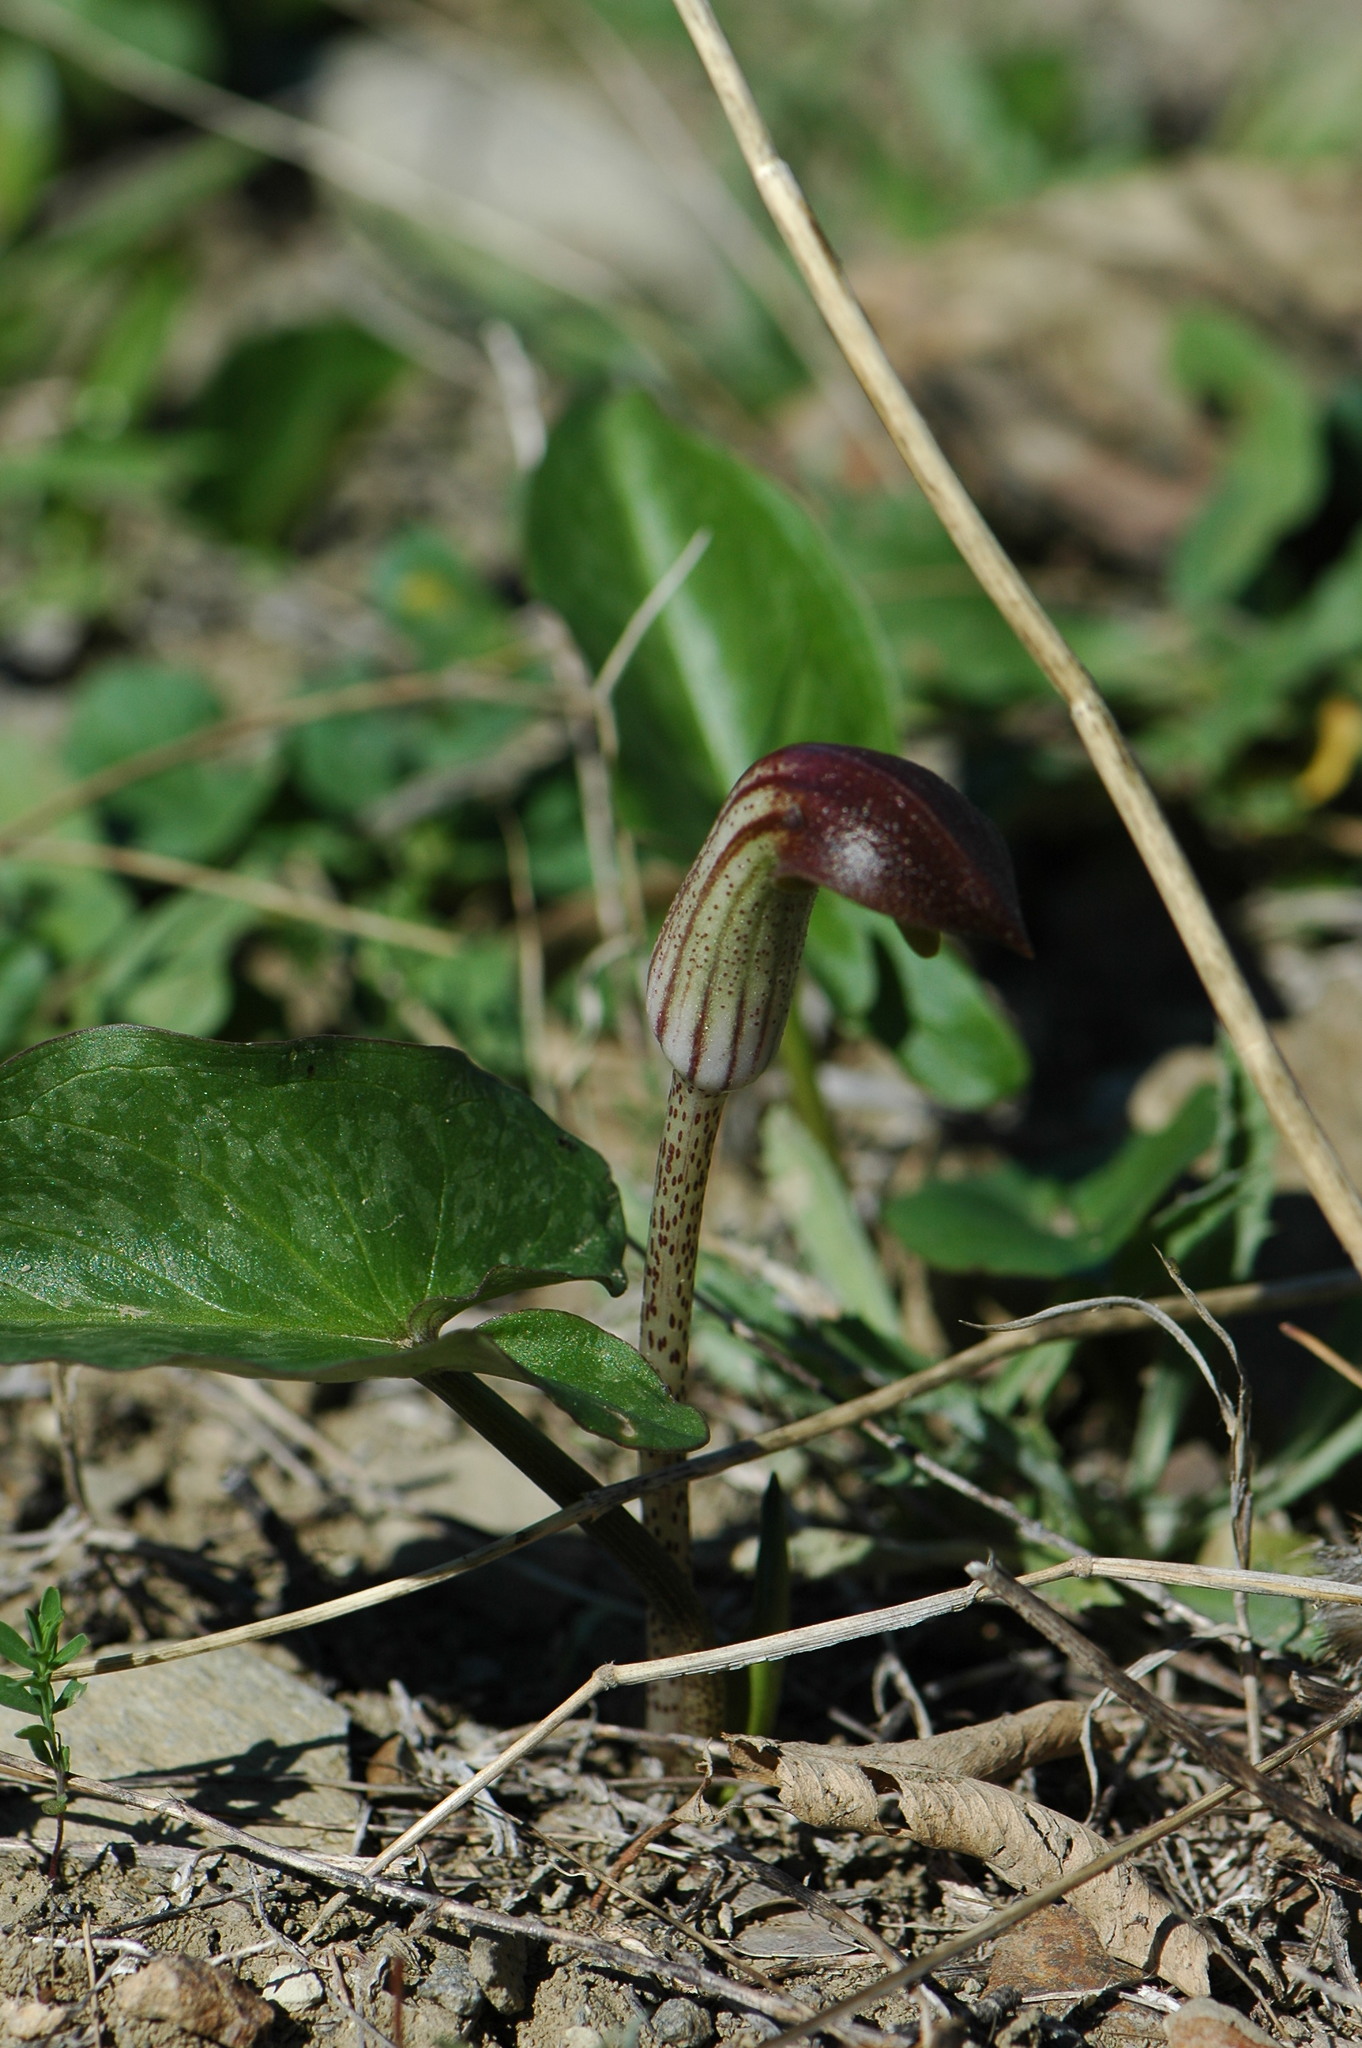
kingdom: Plantae
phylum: Tracheophyta
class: Liliopsida
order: Alismatales
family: Araceae
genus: Arisarum
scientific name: Arisarum vulgare
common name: Common arisarum
